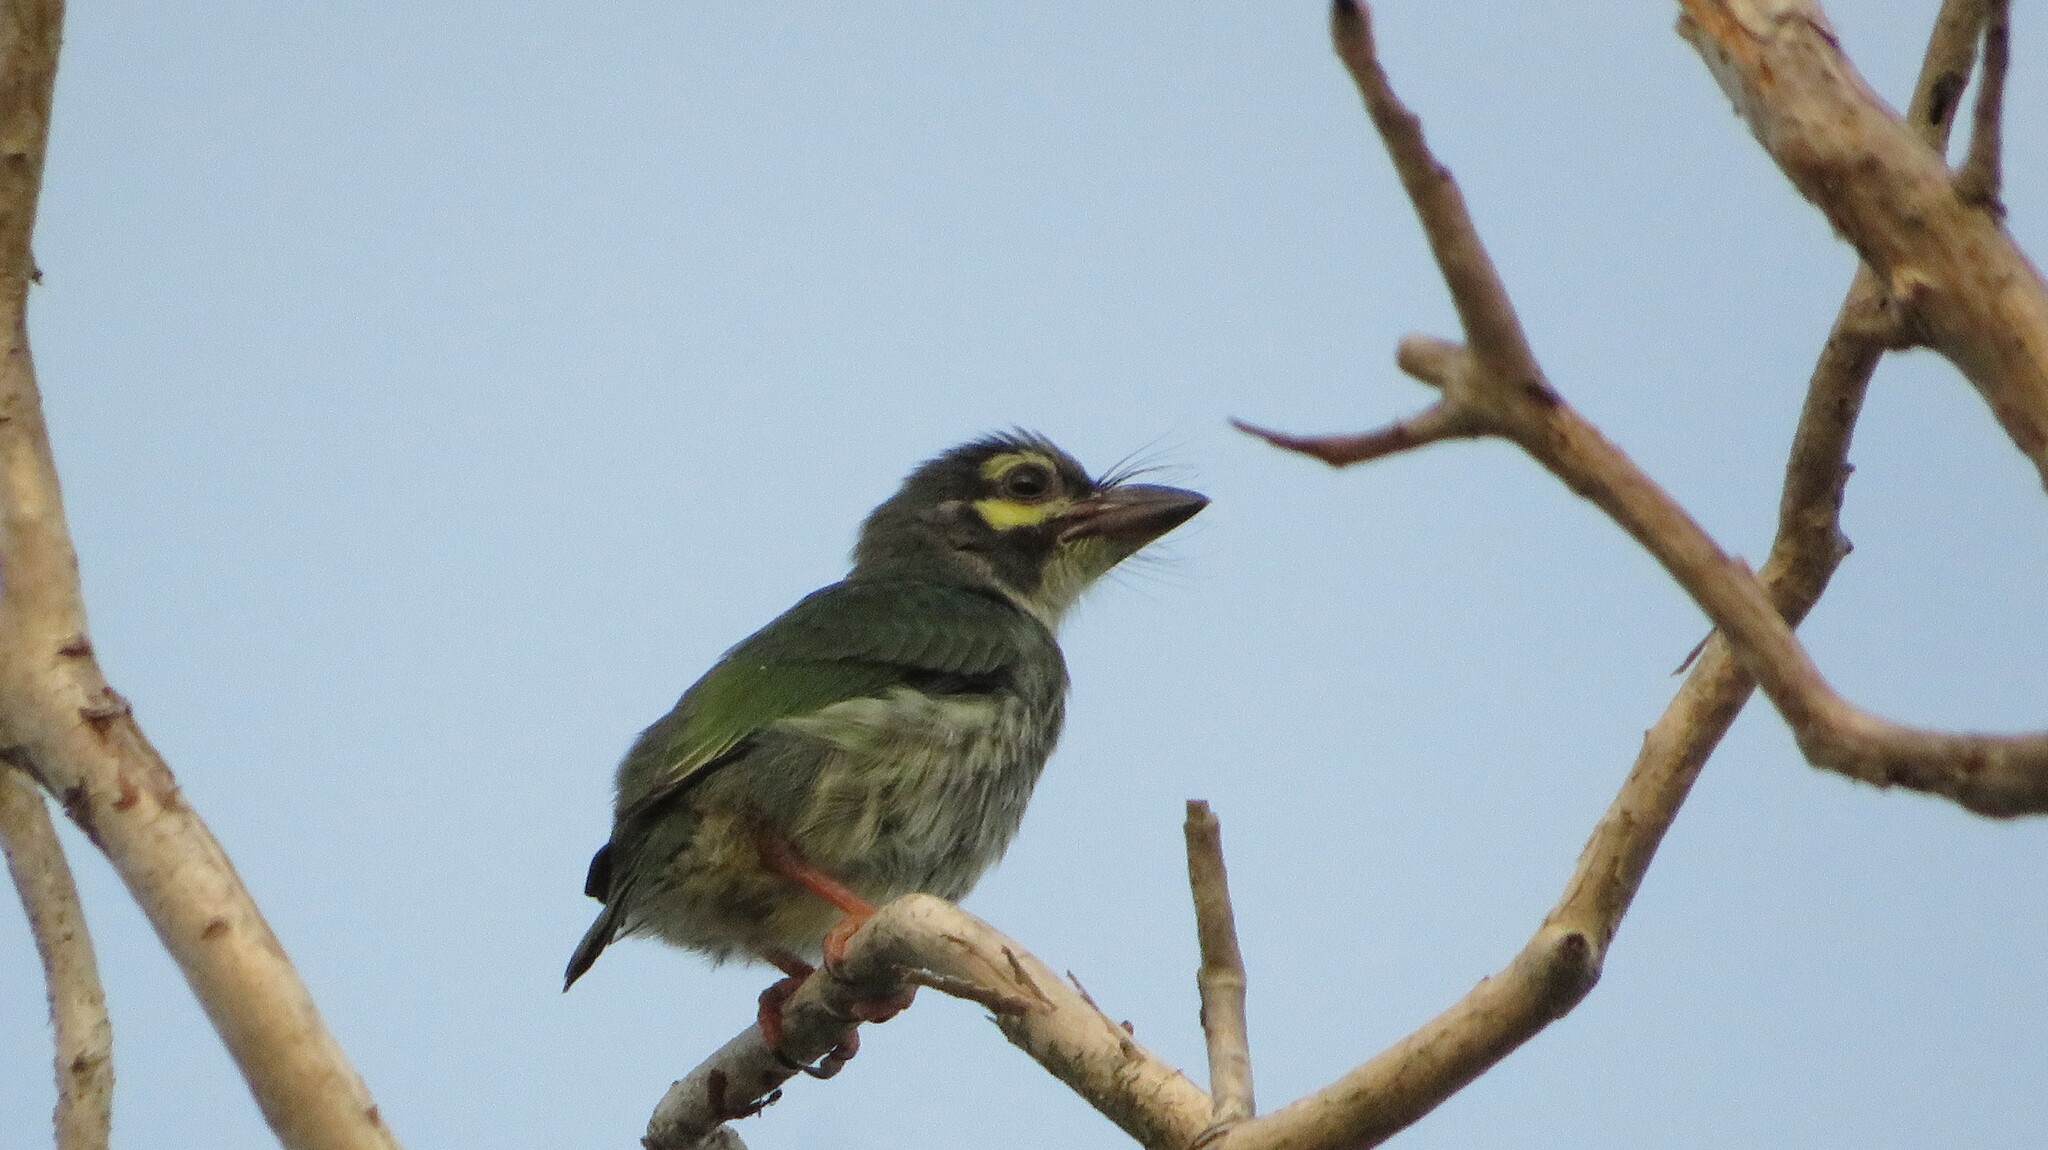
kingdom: Animalia
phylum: Chordata
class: Aves
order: Piciformes
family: Megalaimidae
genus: Psilopogon
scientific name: Psilopogon haemacephalus
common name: Coppersmith barbet
